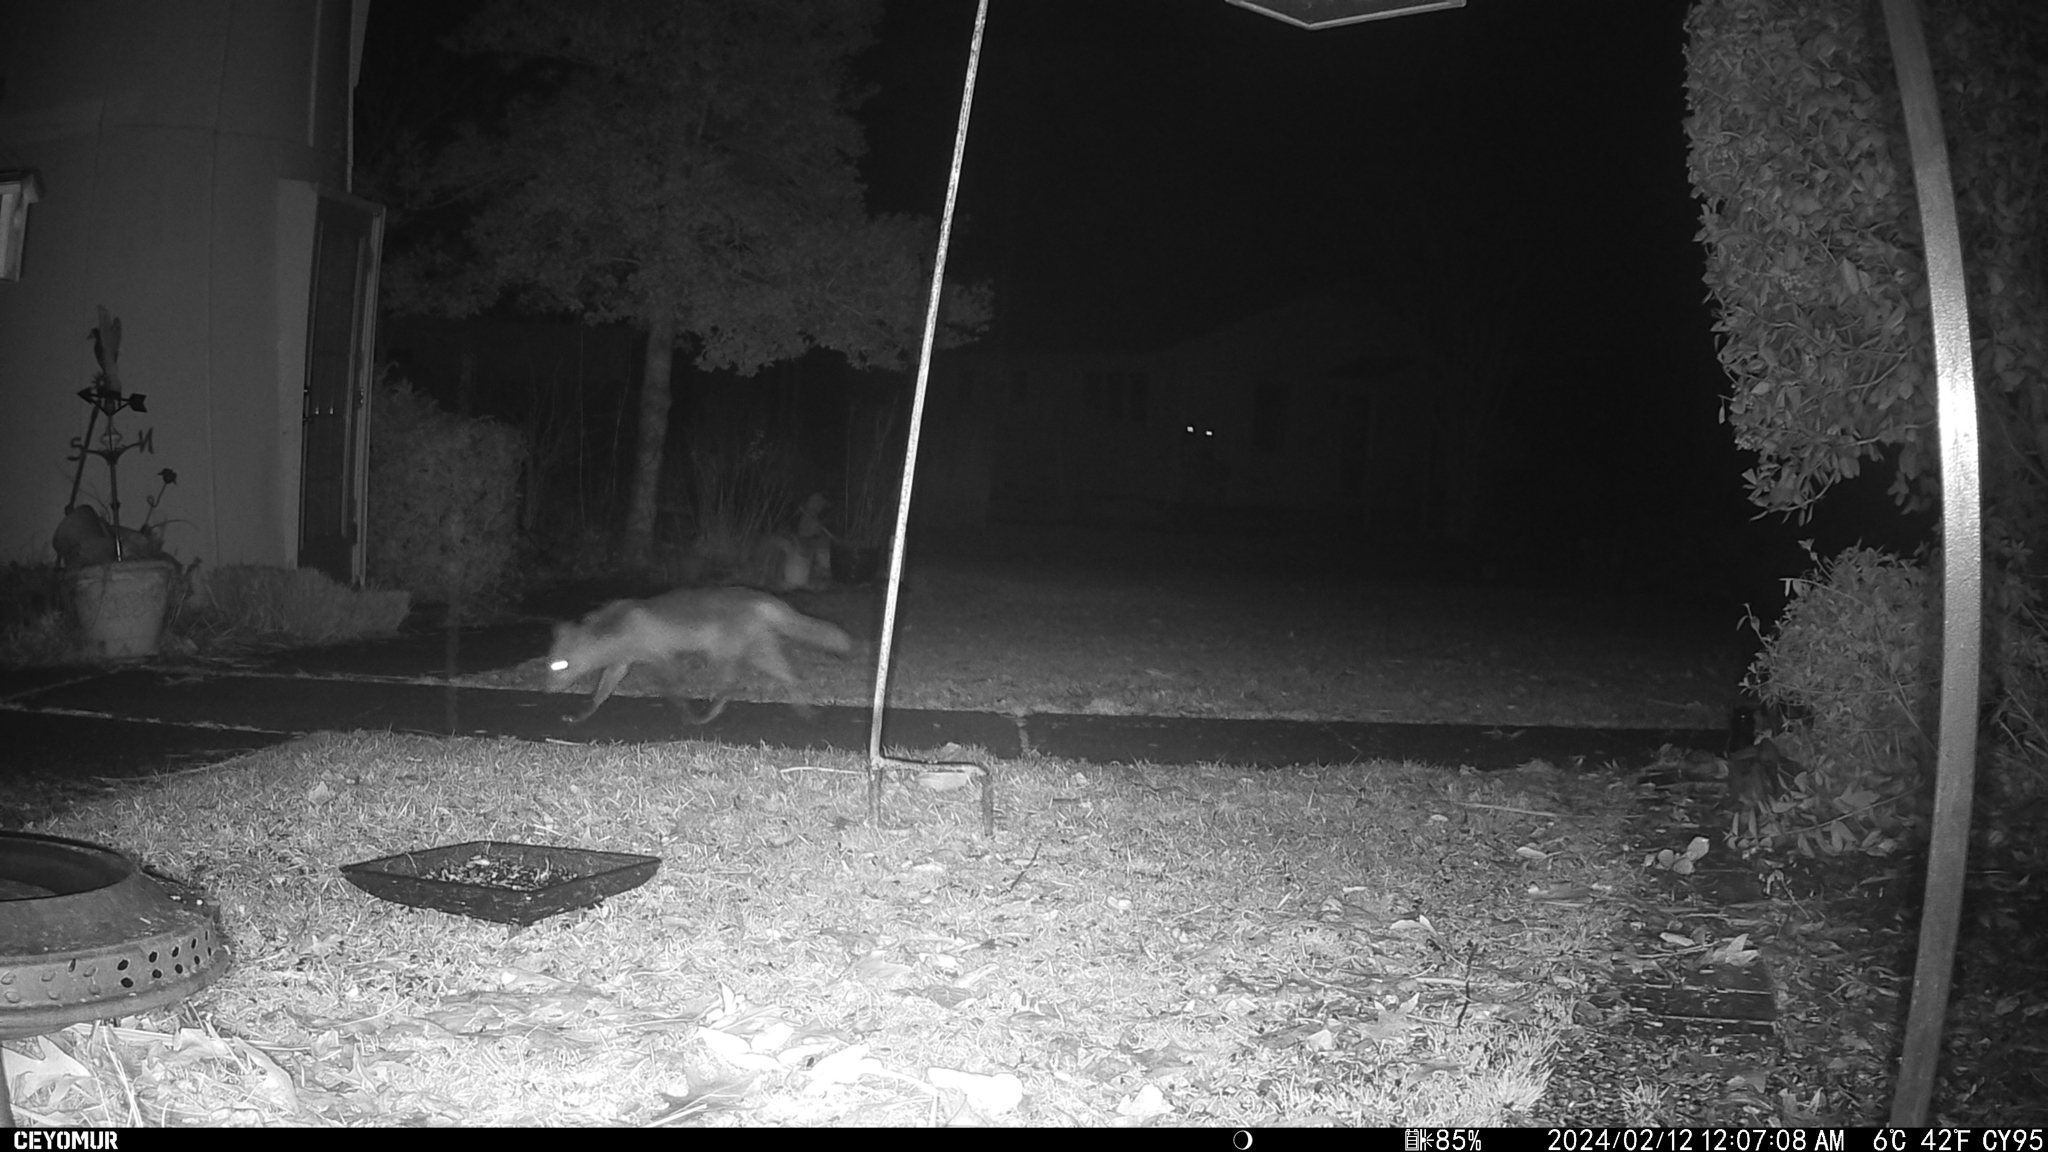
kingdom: Animalia
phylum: Chordata
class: Mammalia
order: Carnivora
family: Canidae
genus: Vulpes
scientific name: Vulpes vulpes
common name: Red fox
